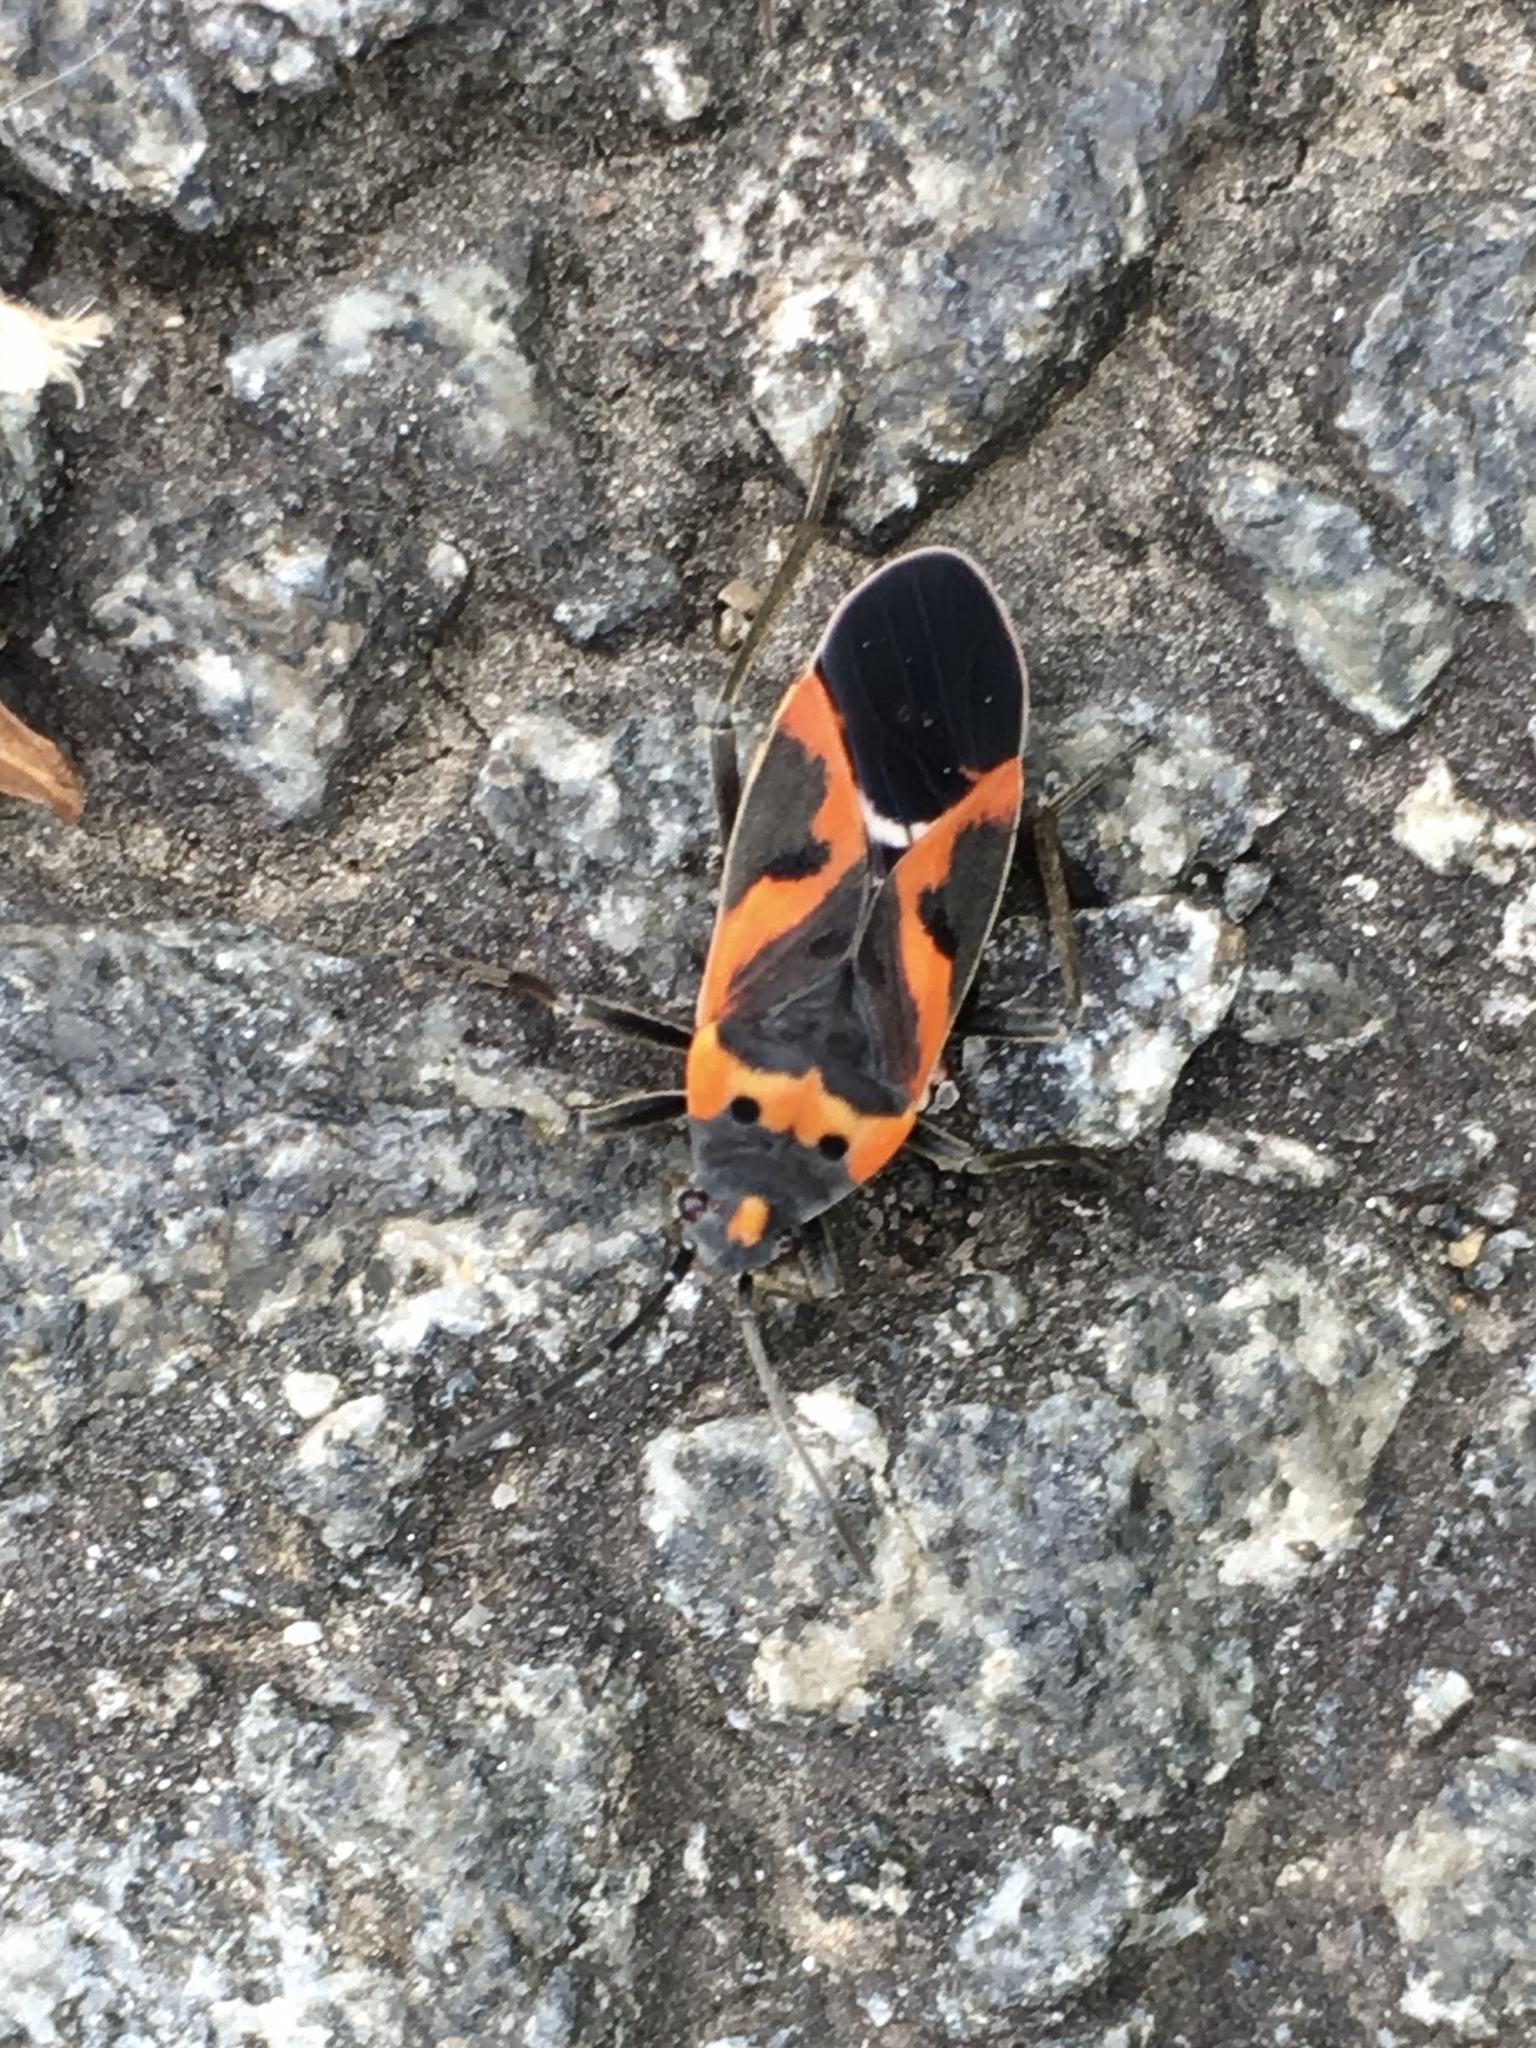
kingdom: Animalia
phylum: Arthropoda
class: Insecta
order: Hemiptera
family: Lygaeidae
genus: Lygaeus
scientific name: Lygaeus kalmii
